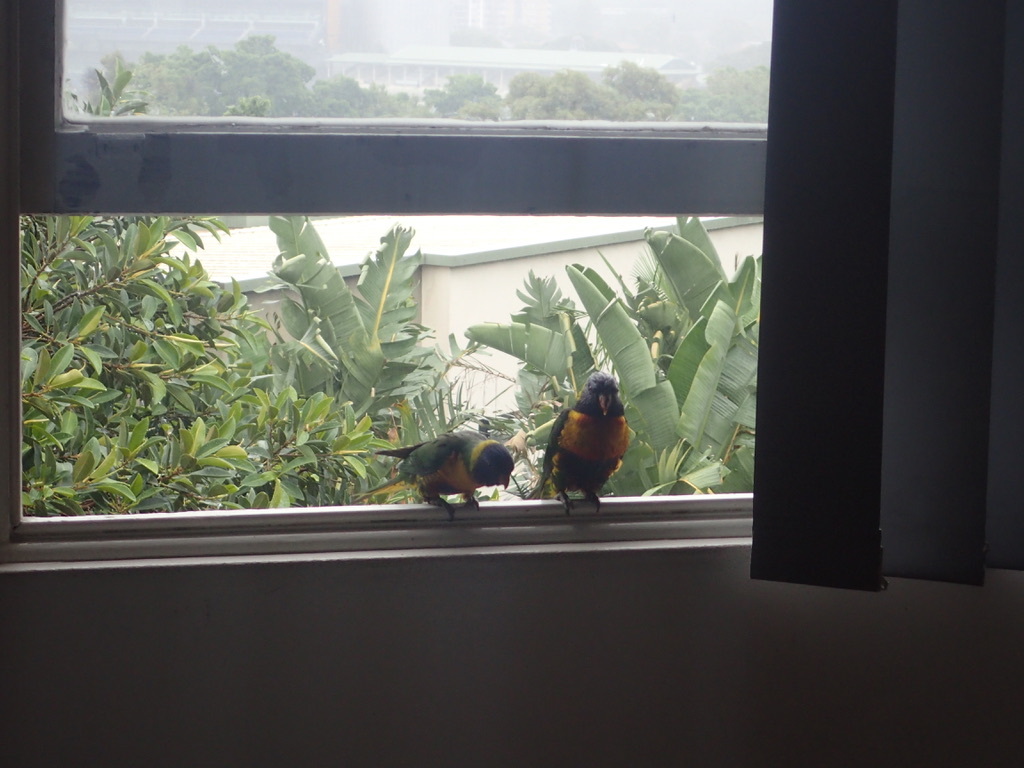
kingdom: Animalia
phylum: Chordata
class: Aves
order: Psittaciformes
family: Psittacidae
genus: Trichoglossus
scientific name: Trichoglossus haematodus
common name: Coconut lorikeet
